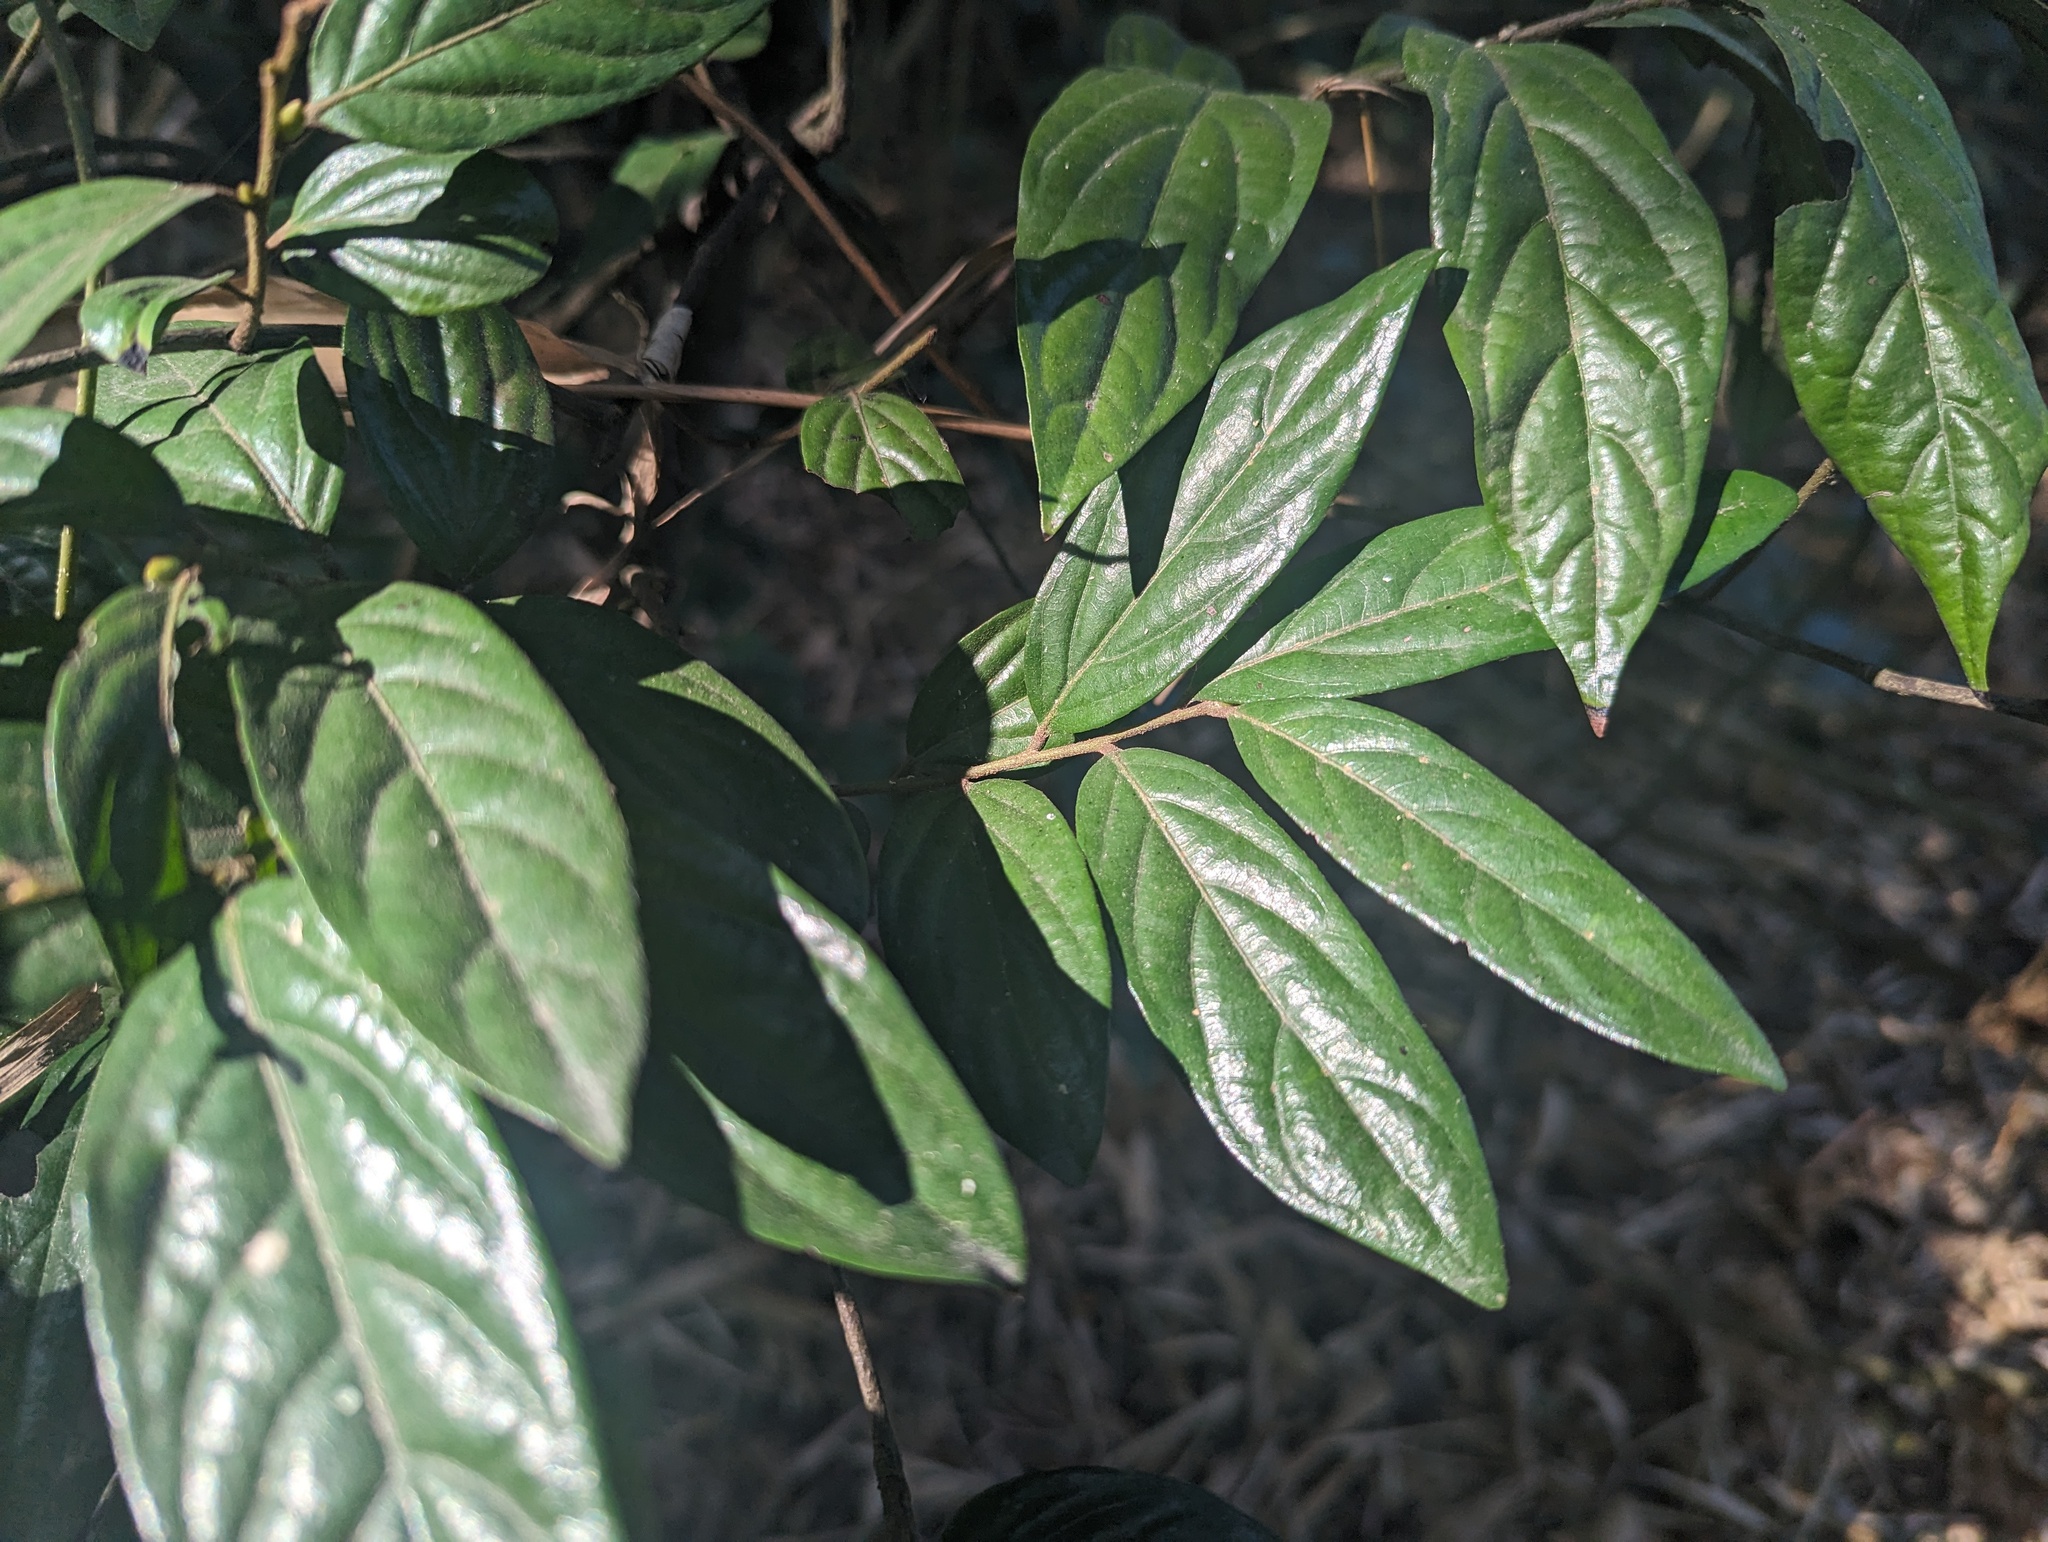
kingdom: Plantae
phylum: Tracheophyta
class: Magnoliopsida
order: Ericales
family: Ebenaceae
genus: Diospyros
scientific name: Diospyros eriantha
